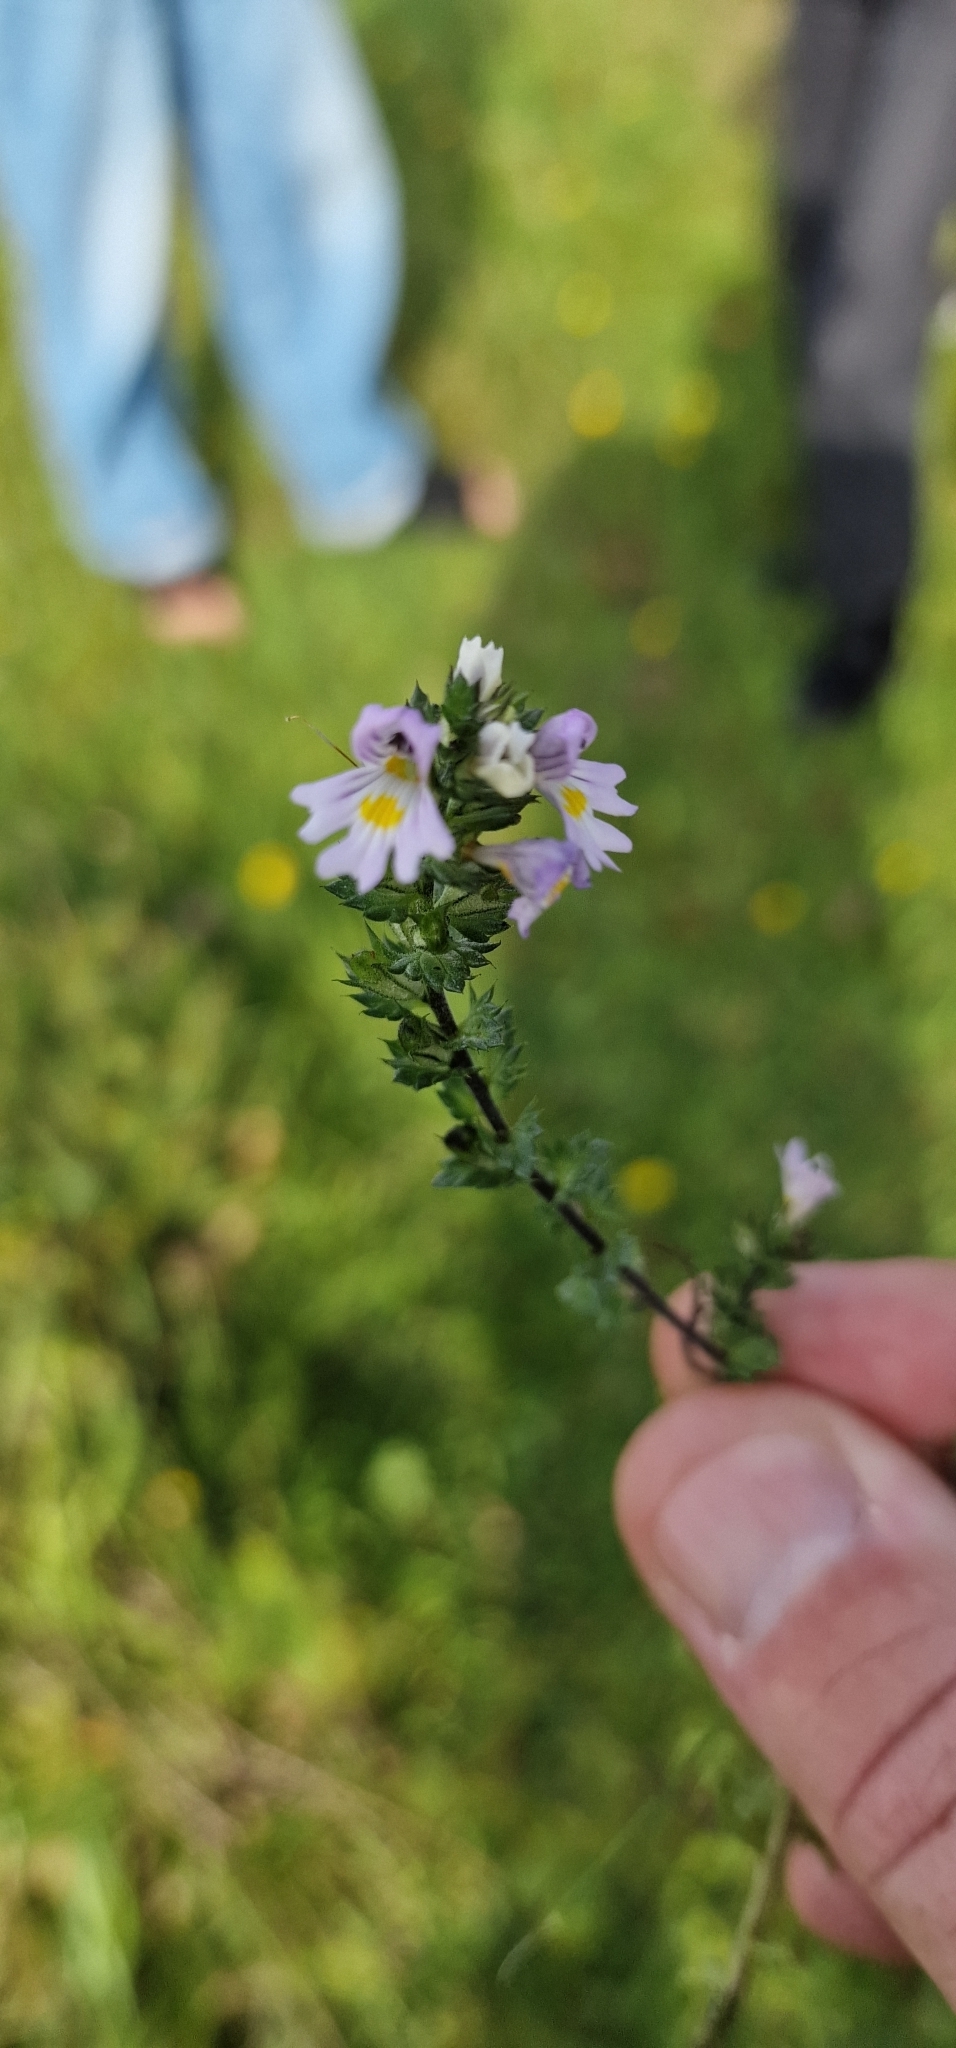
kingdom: Plantae
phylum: Tracheophyta
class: Magnoliopsida
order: Lamiales
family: Orobanchaceae
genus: Euphrasia
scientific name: Euphrasia stricta
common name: Drug eyebright
